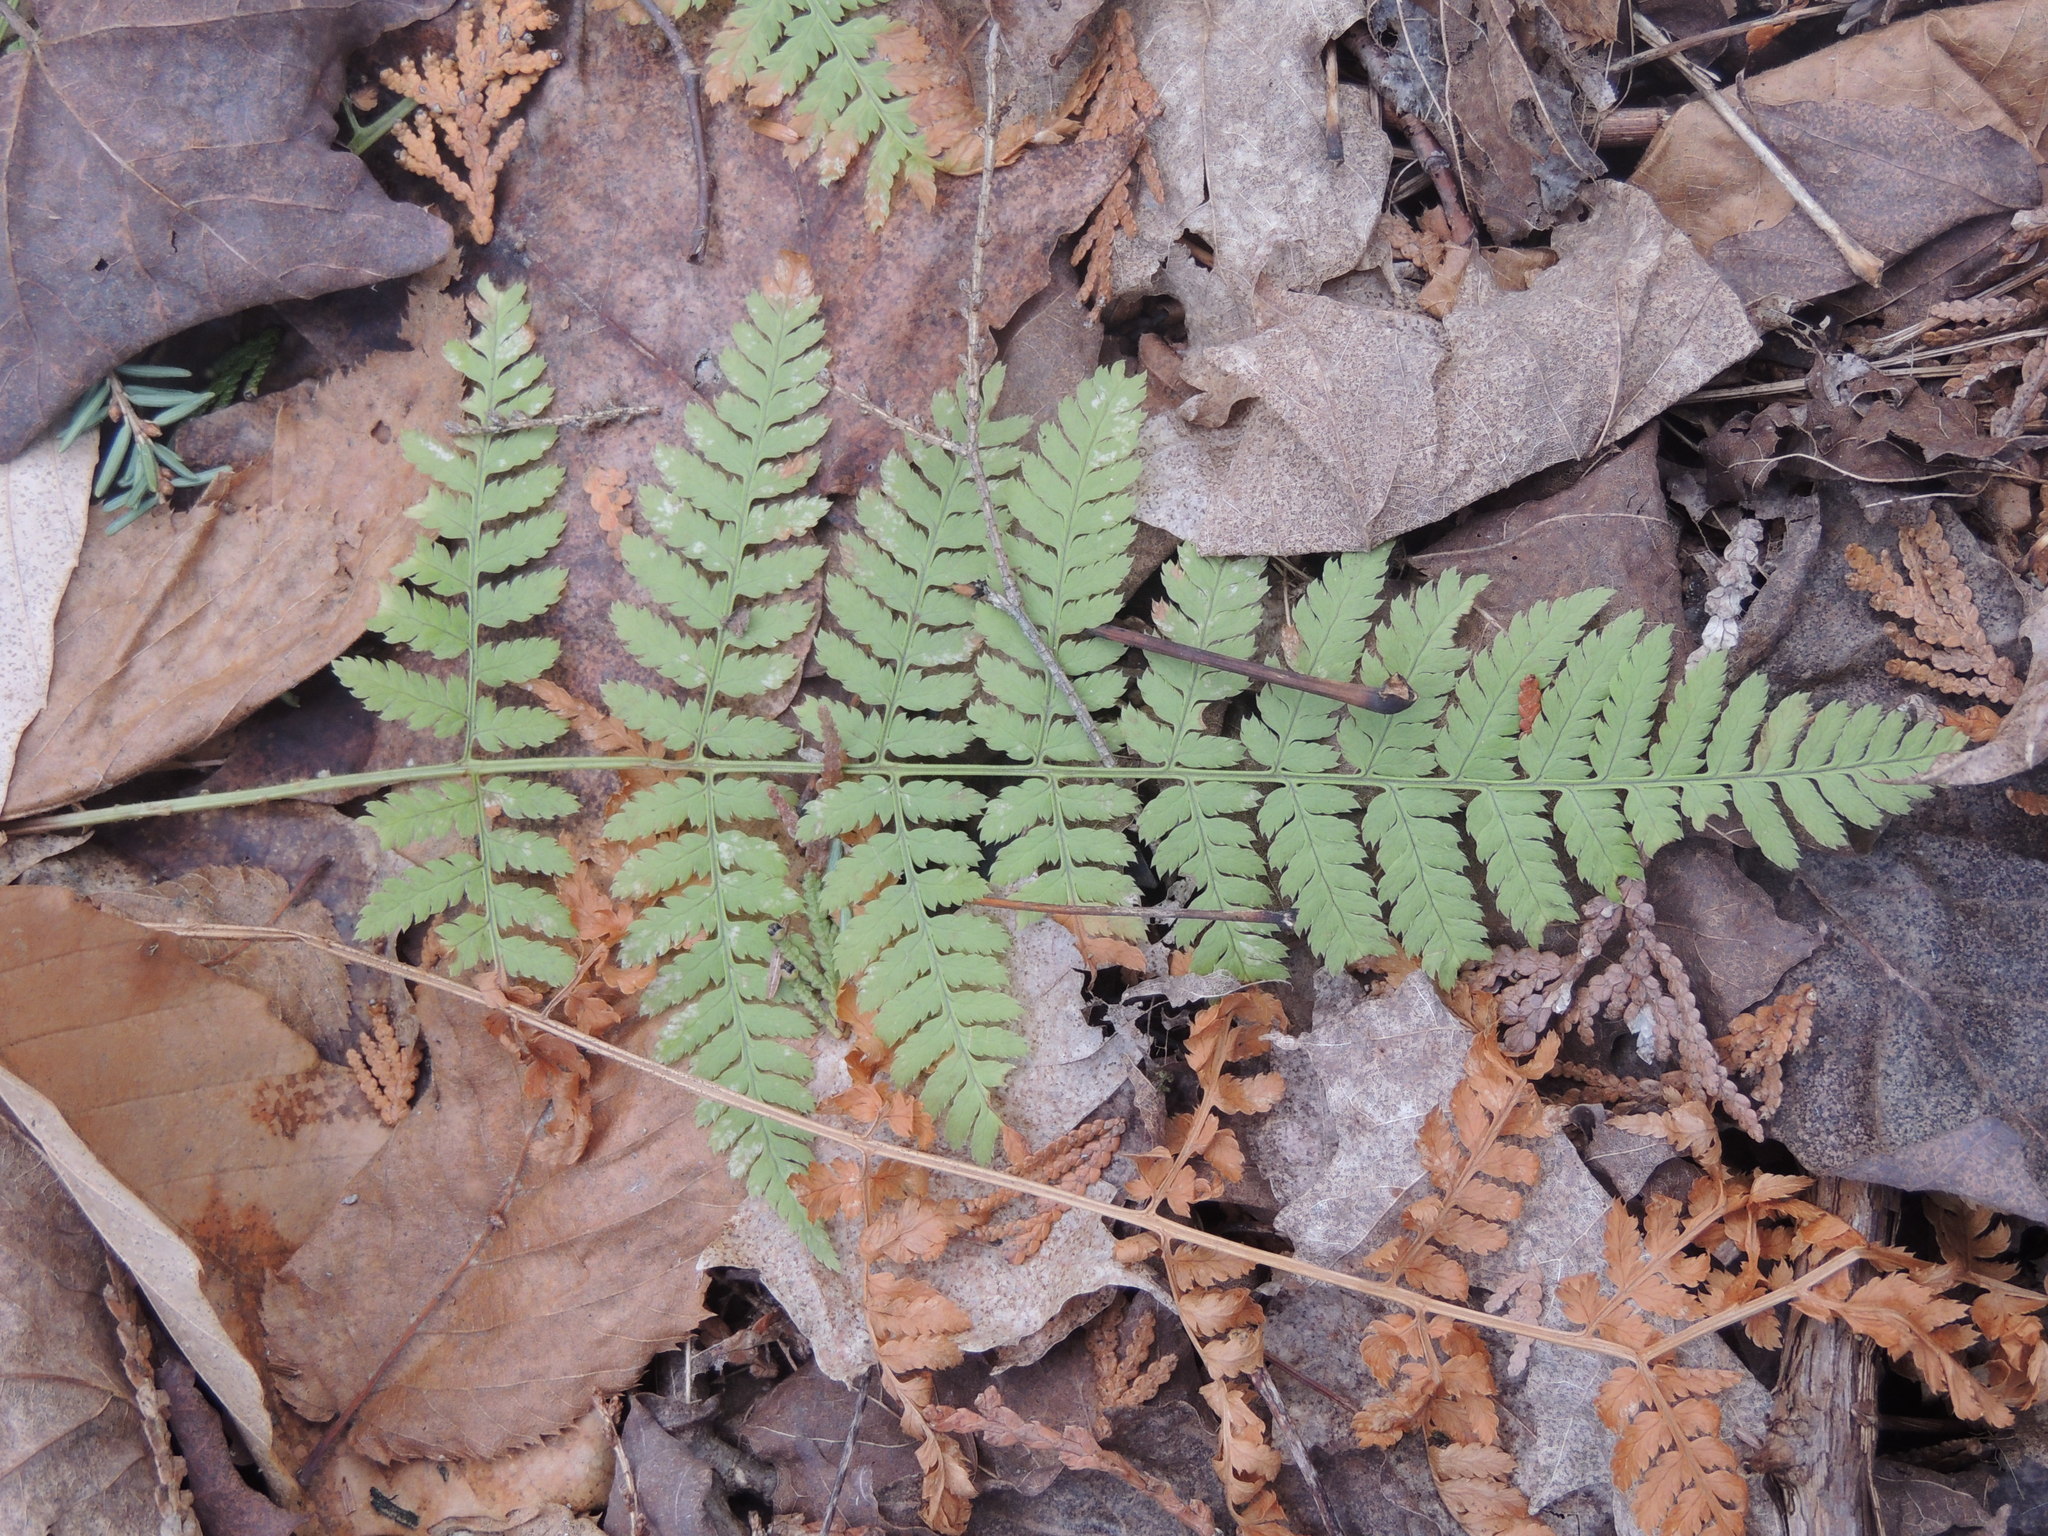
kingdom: Plantae
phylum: Tracheophyta
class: Polypodiopsida
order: Polypodiales
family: Dryopteridaceae
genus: Dryopteris
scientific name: Dryopteris intermedia
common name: Evergreen wood fern
